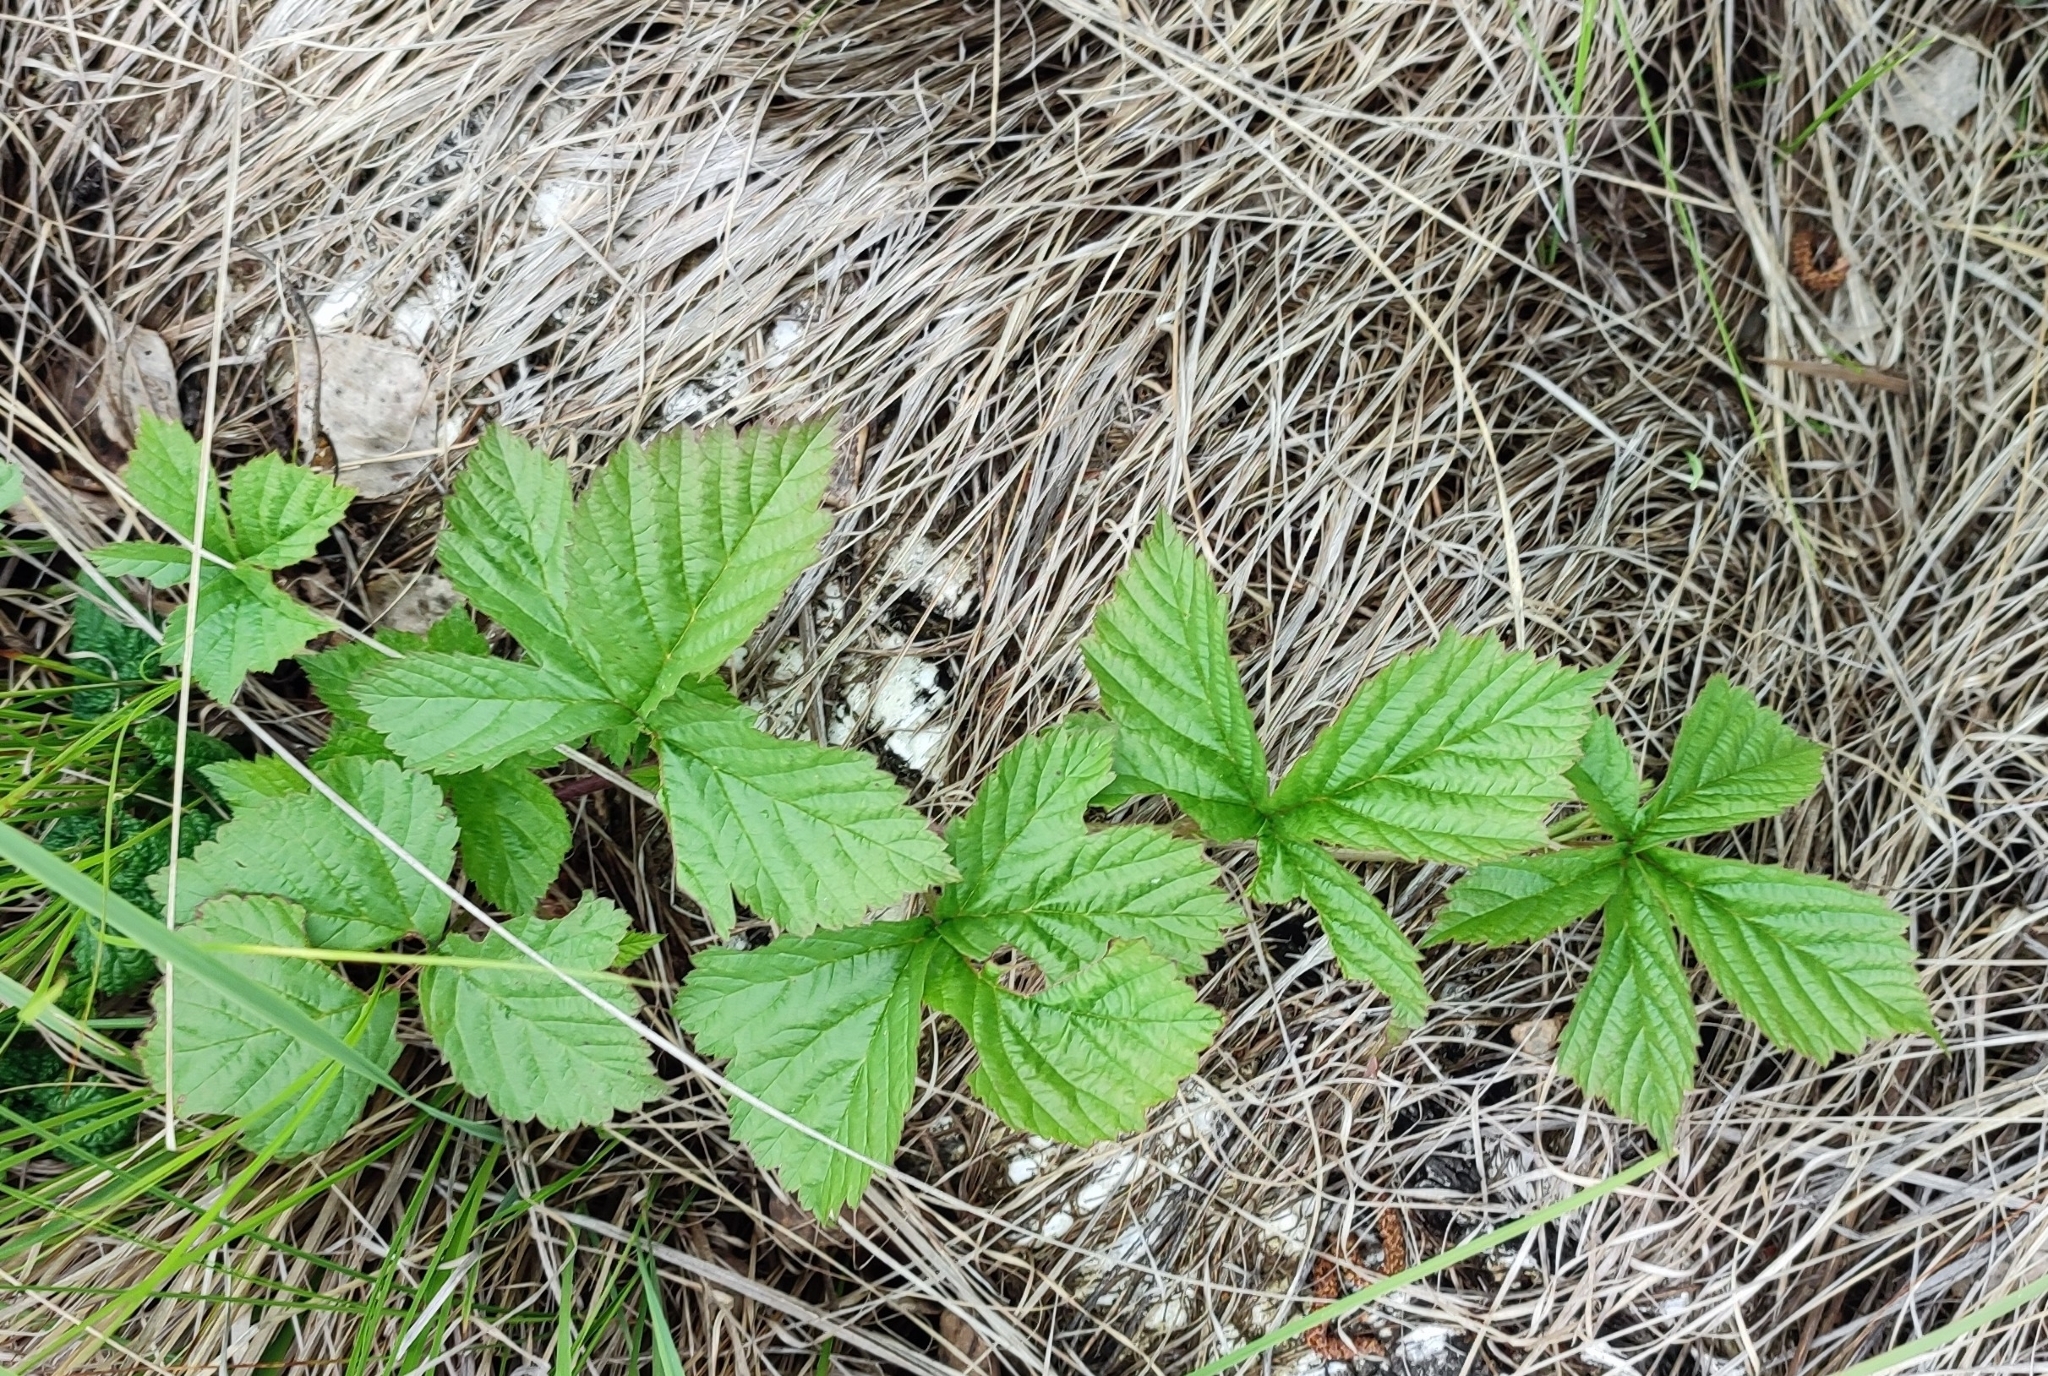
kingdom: Plantae
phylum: Tracheophyta
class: Magnoliopsida
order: Rosales
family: Rosaceae
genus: Rubus
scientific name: Rubus saxatilis
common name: Stone bramble
